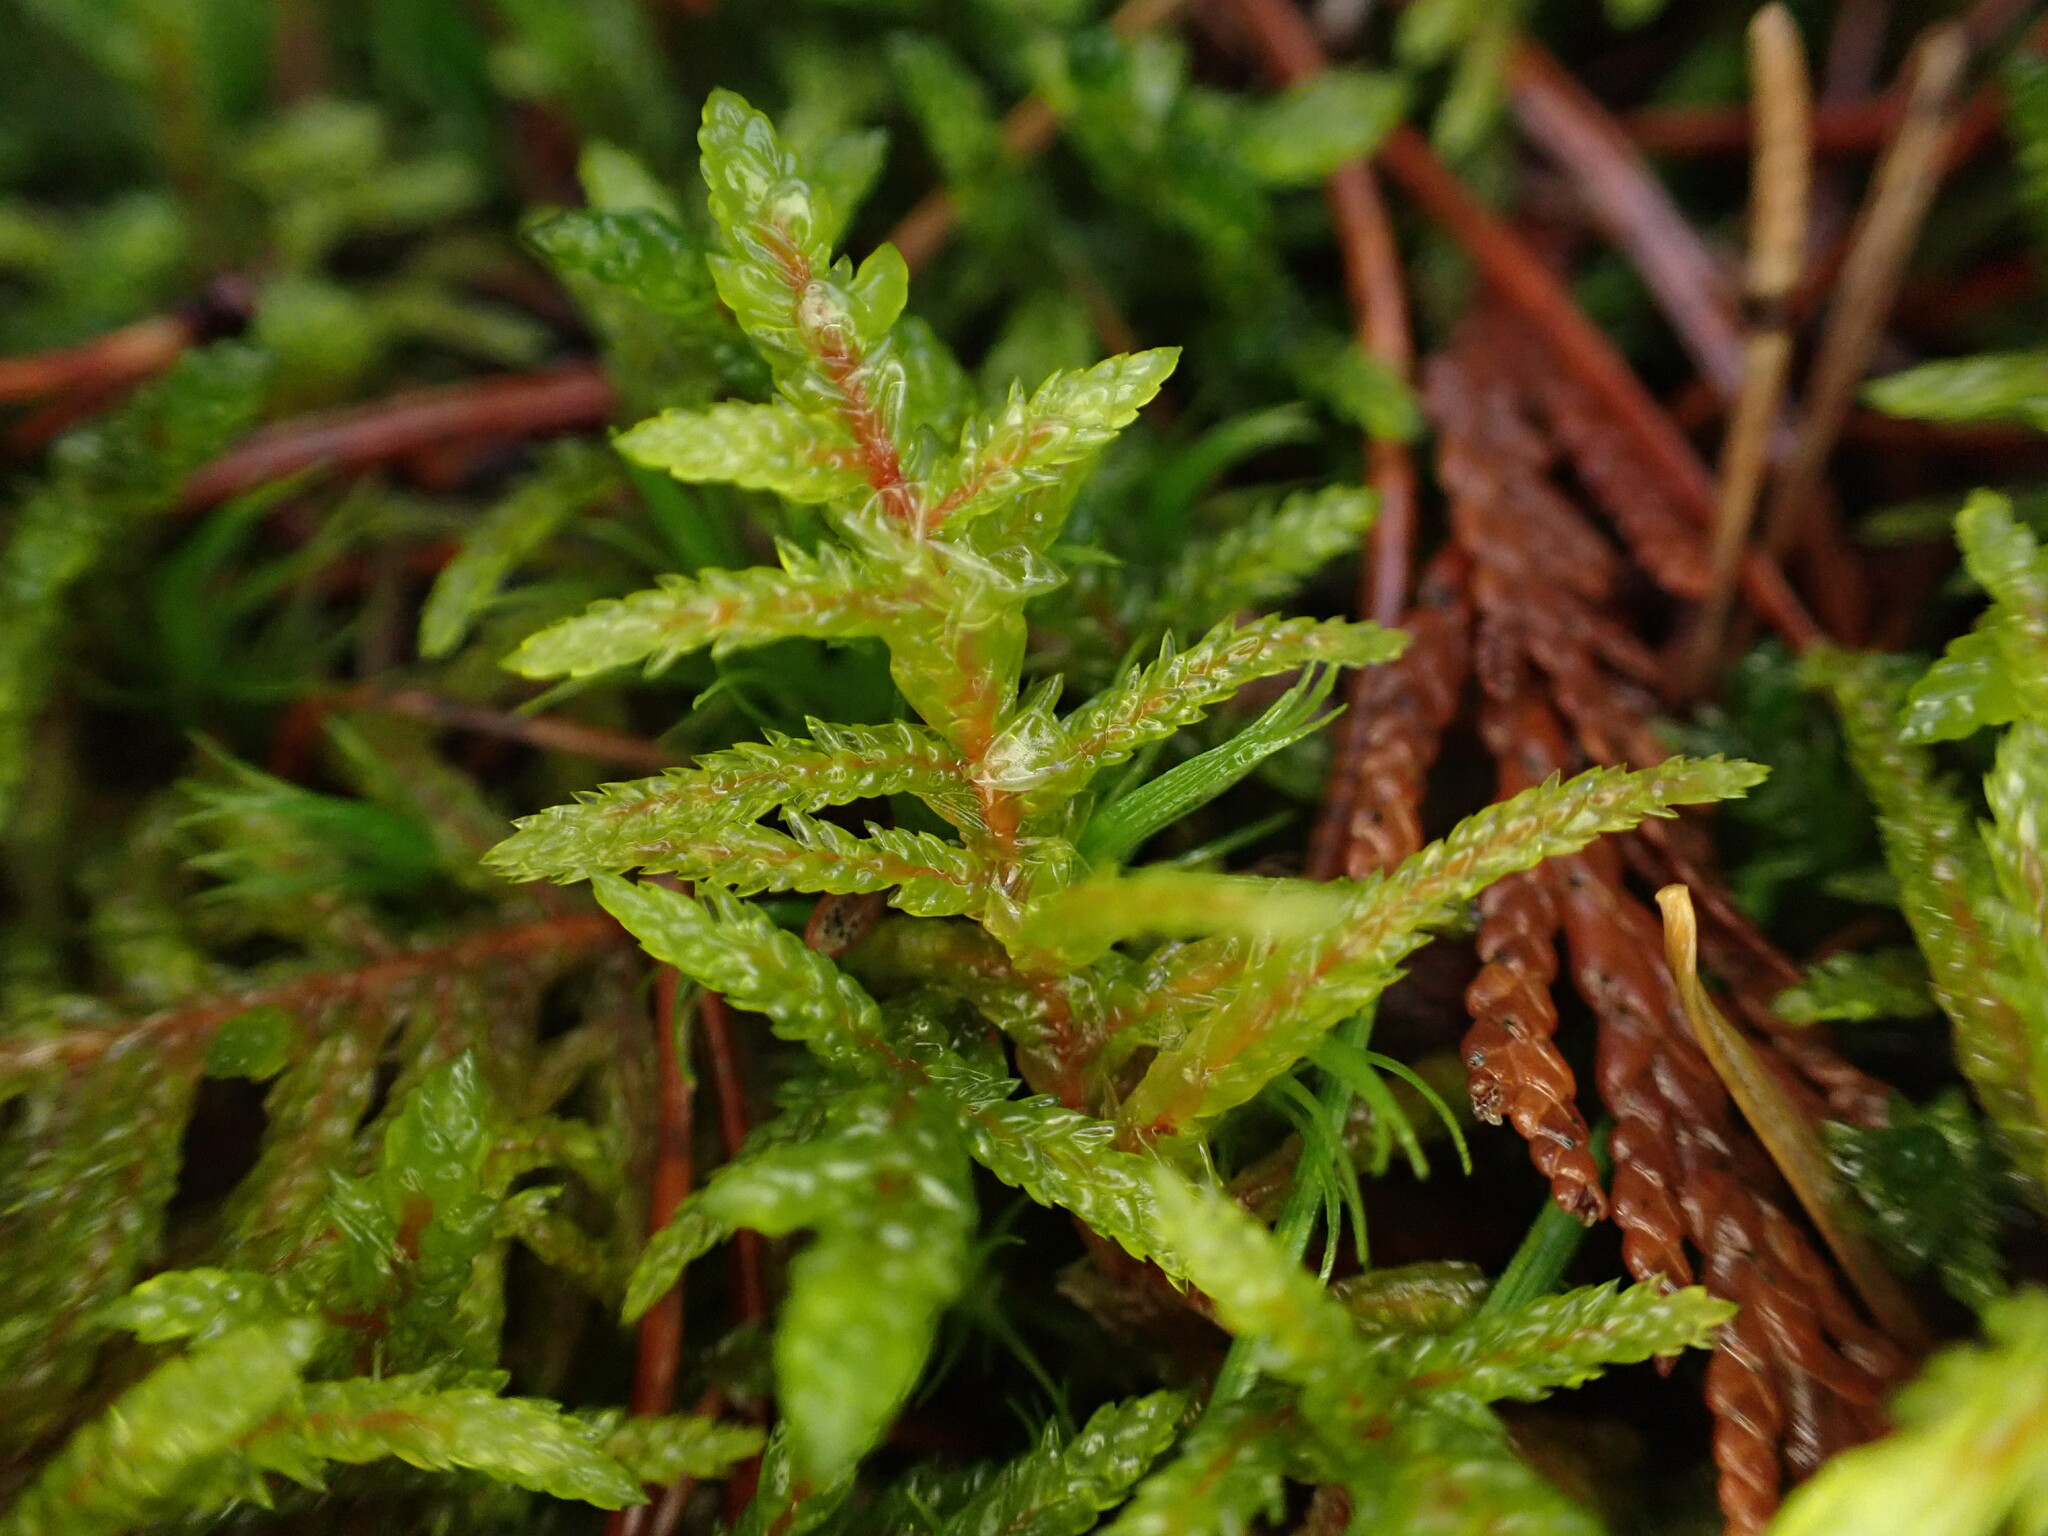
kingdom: Plantae
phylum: Bryophyta
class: Bryopsida
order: Hypnales
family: Hylocomiaceae
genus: Pleurozium
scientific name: Pleurozium schreberi
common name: Red-stemmed feather moss
